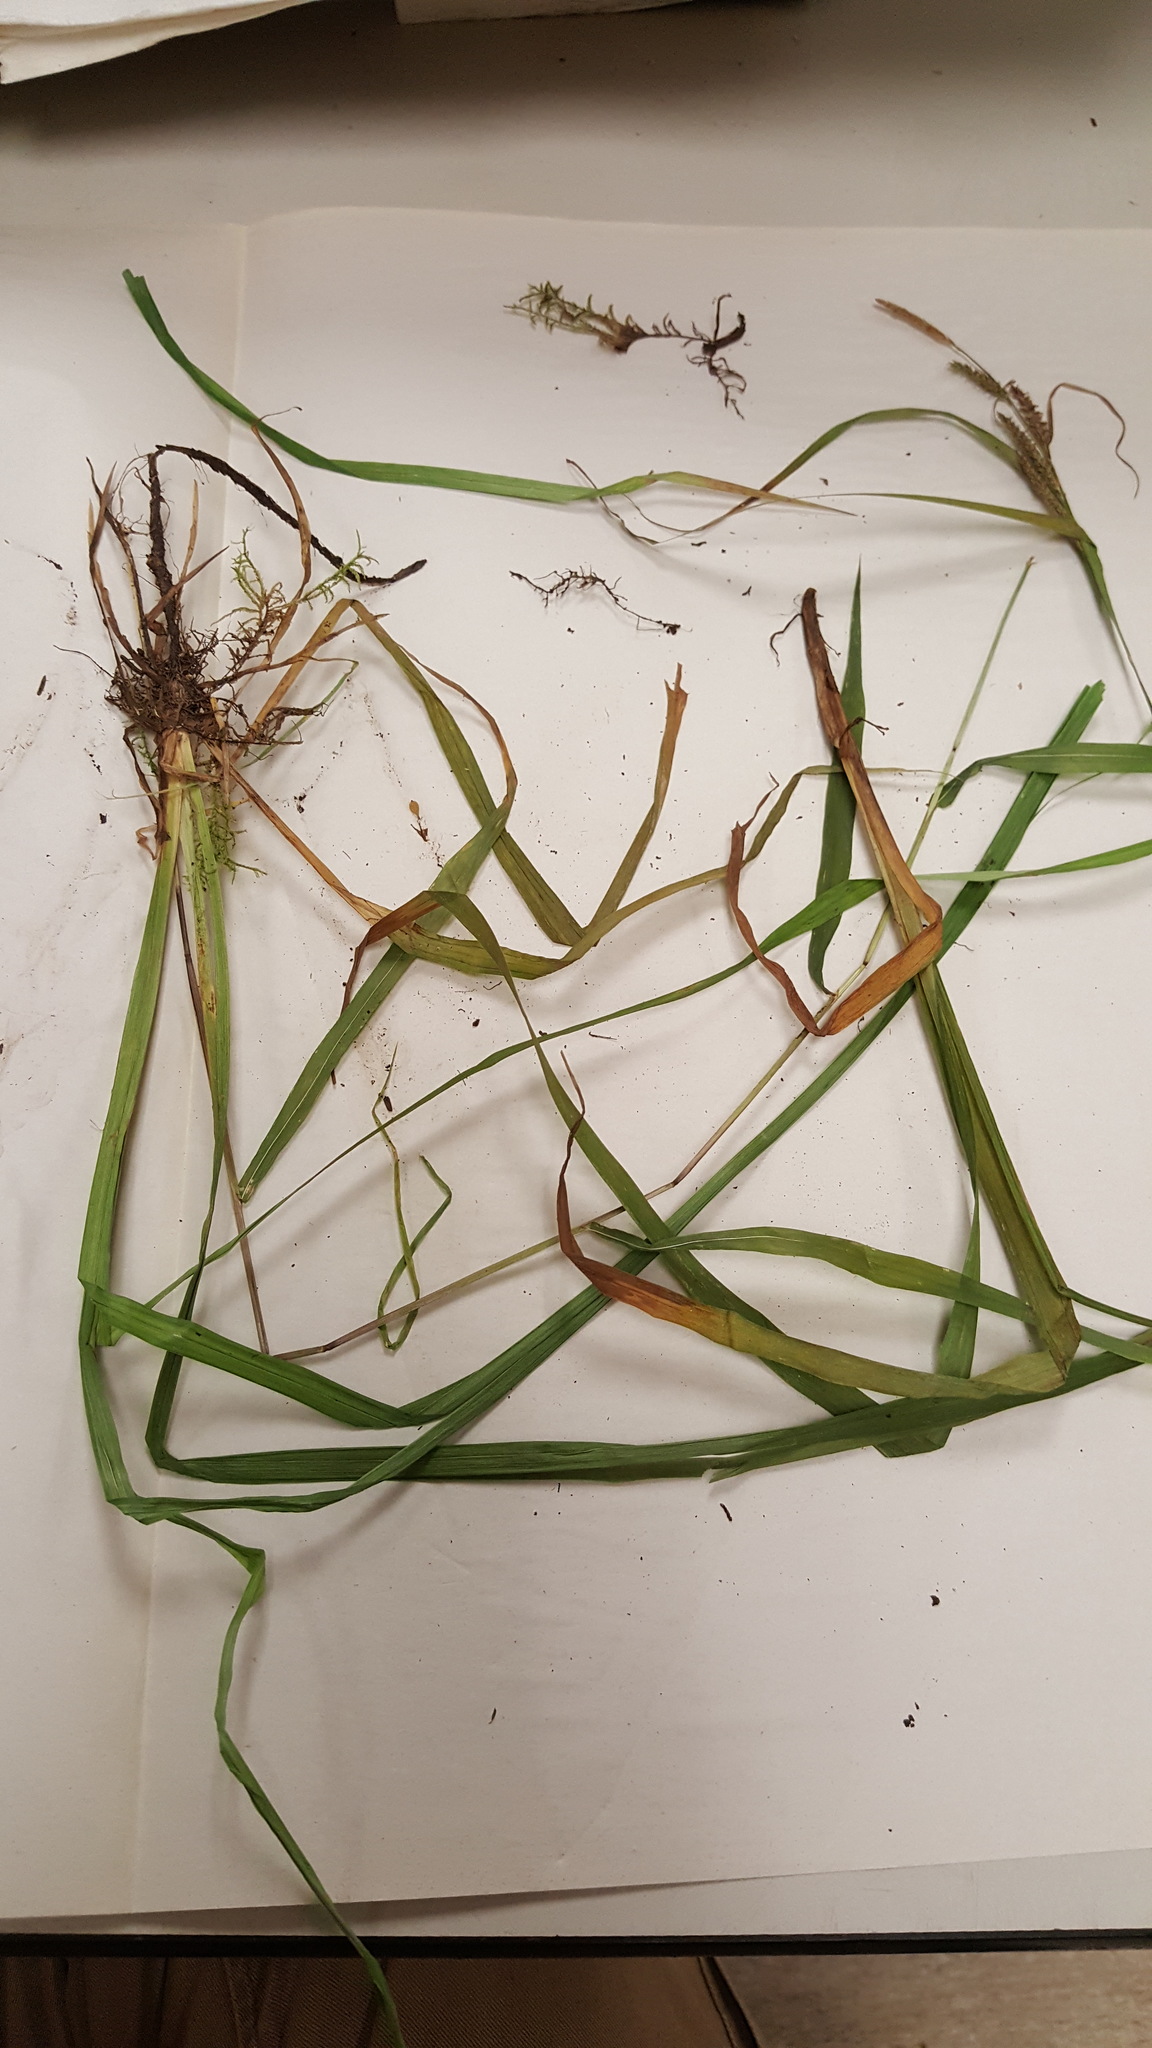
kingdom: Plantae
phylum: Tracheophyta
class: Liliopsida
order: Poales
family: Cyperaceae
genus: Carex
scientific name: Carex scabrata
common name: Eastern rough sedge
